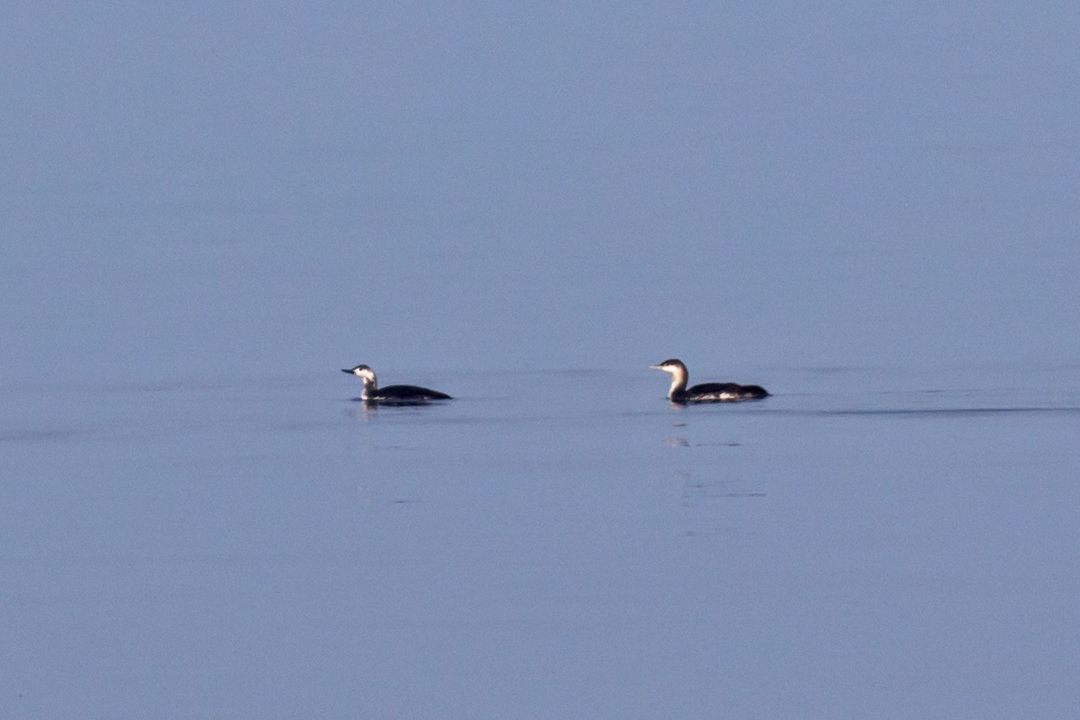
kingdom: Animalia
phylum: Chordata
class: Aves
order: Gaviiformes
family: Gaviidae
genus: Gavia
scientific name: Gavia stellata
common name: Red-throated loon
